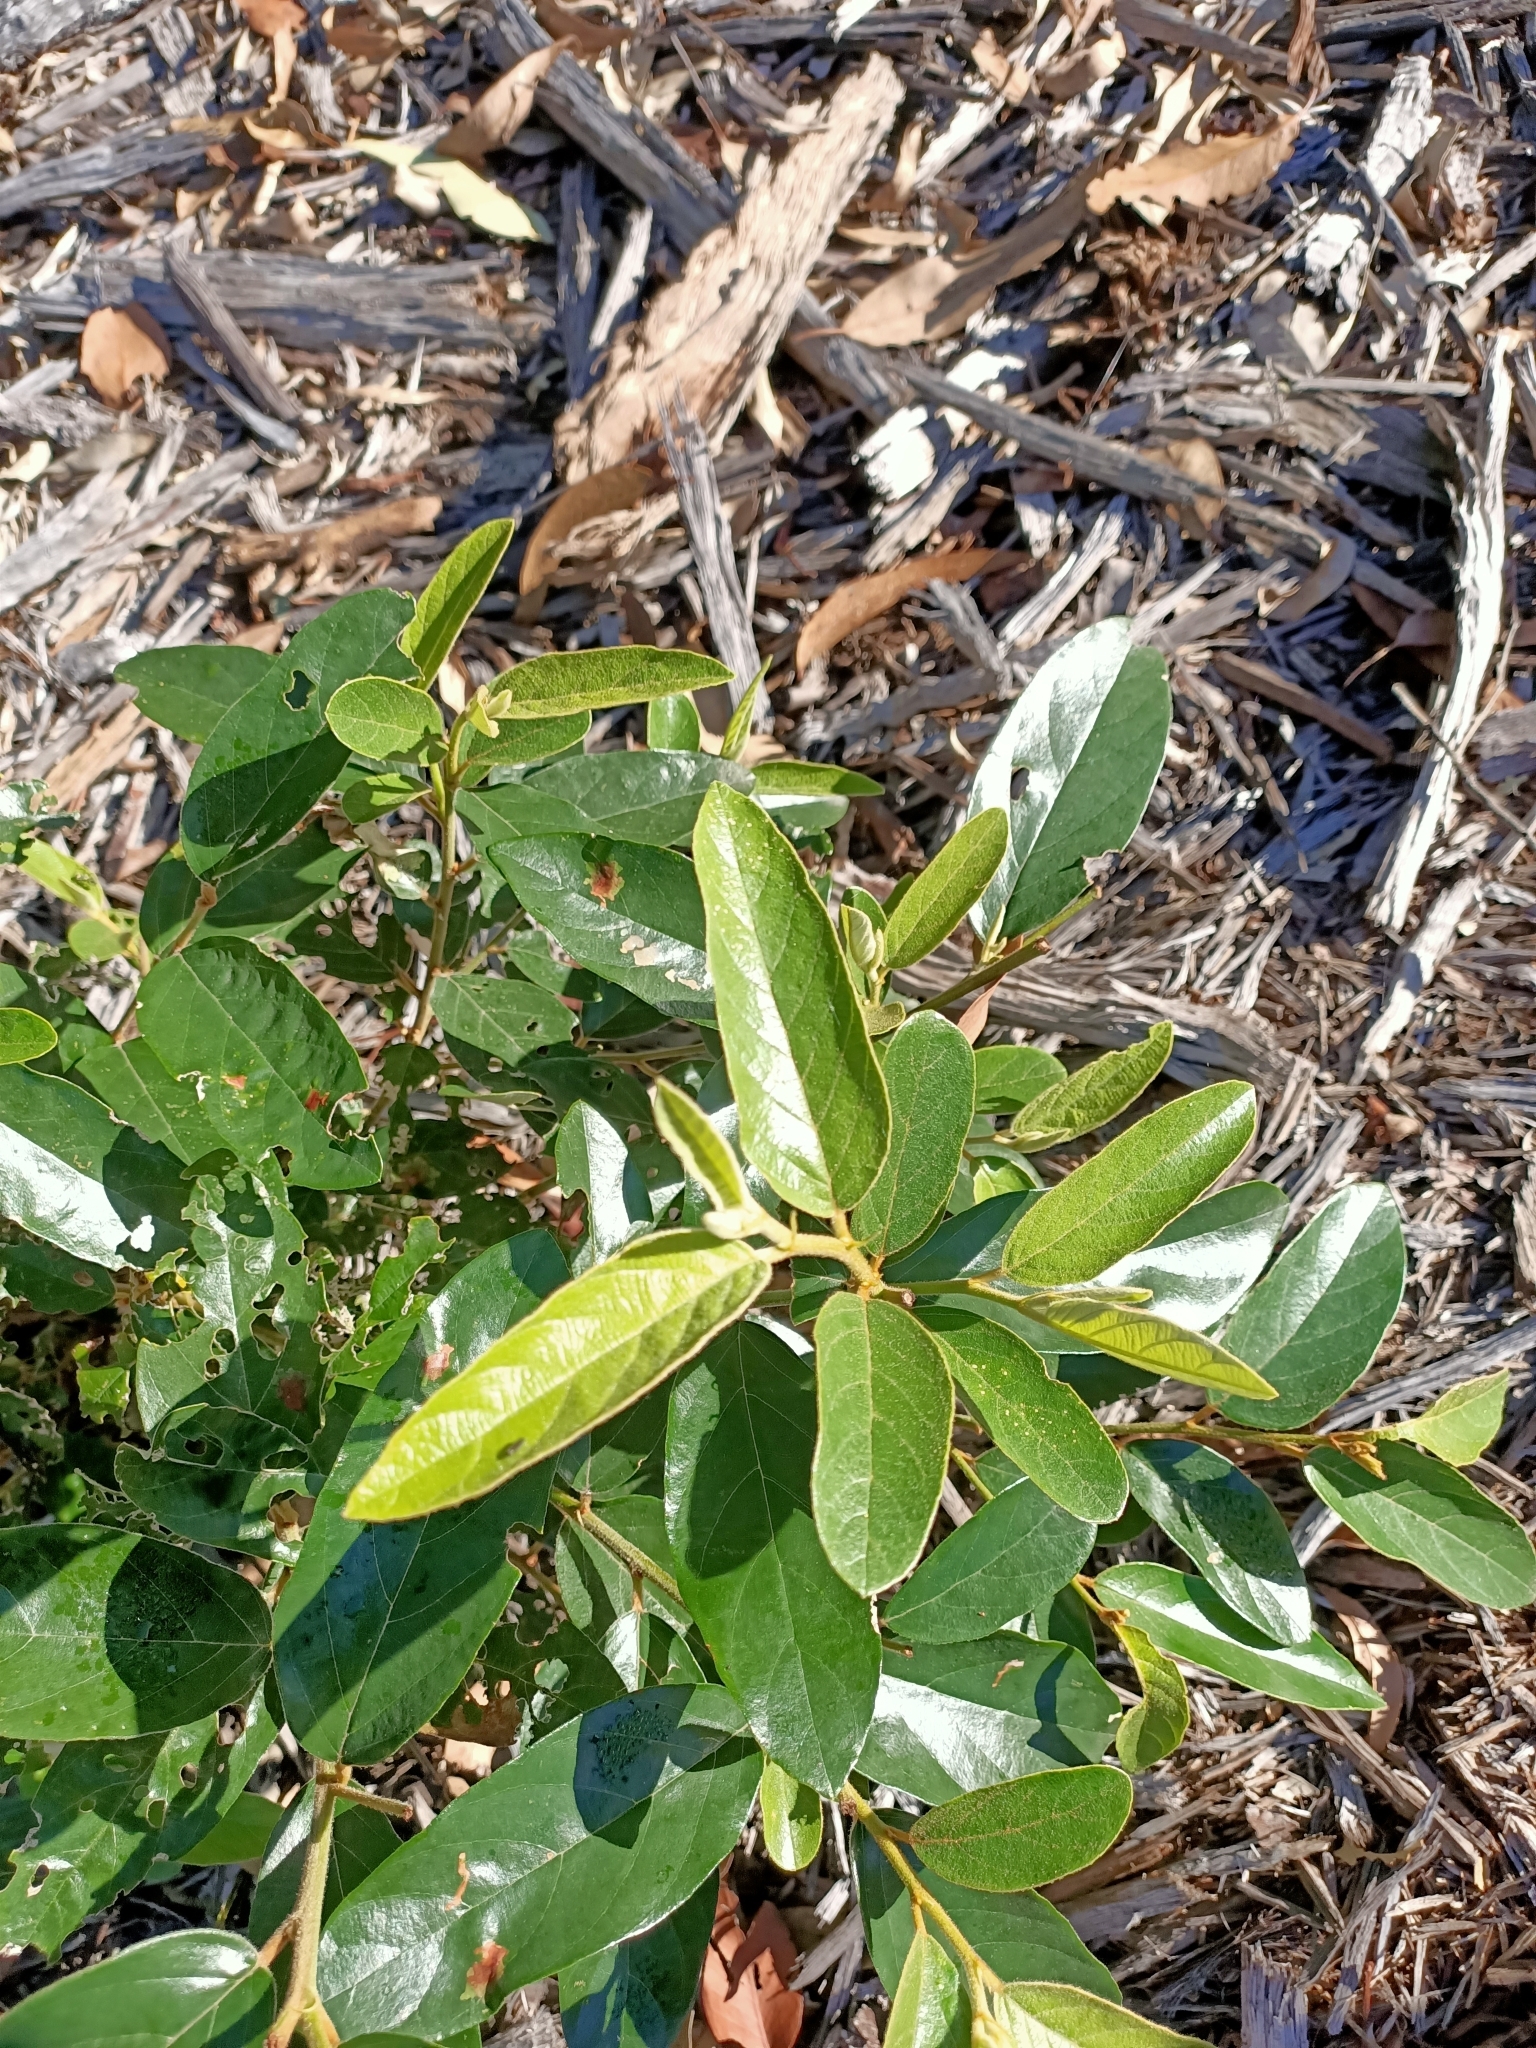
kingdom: Plantae
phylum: Tracheophyta
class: Magnoliopsida
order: Rosales
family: Rhamnaceae
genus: Alphitonia
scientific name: Alphitonia excelsa
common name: Red ash
